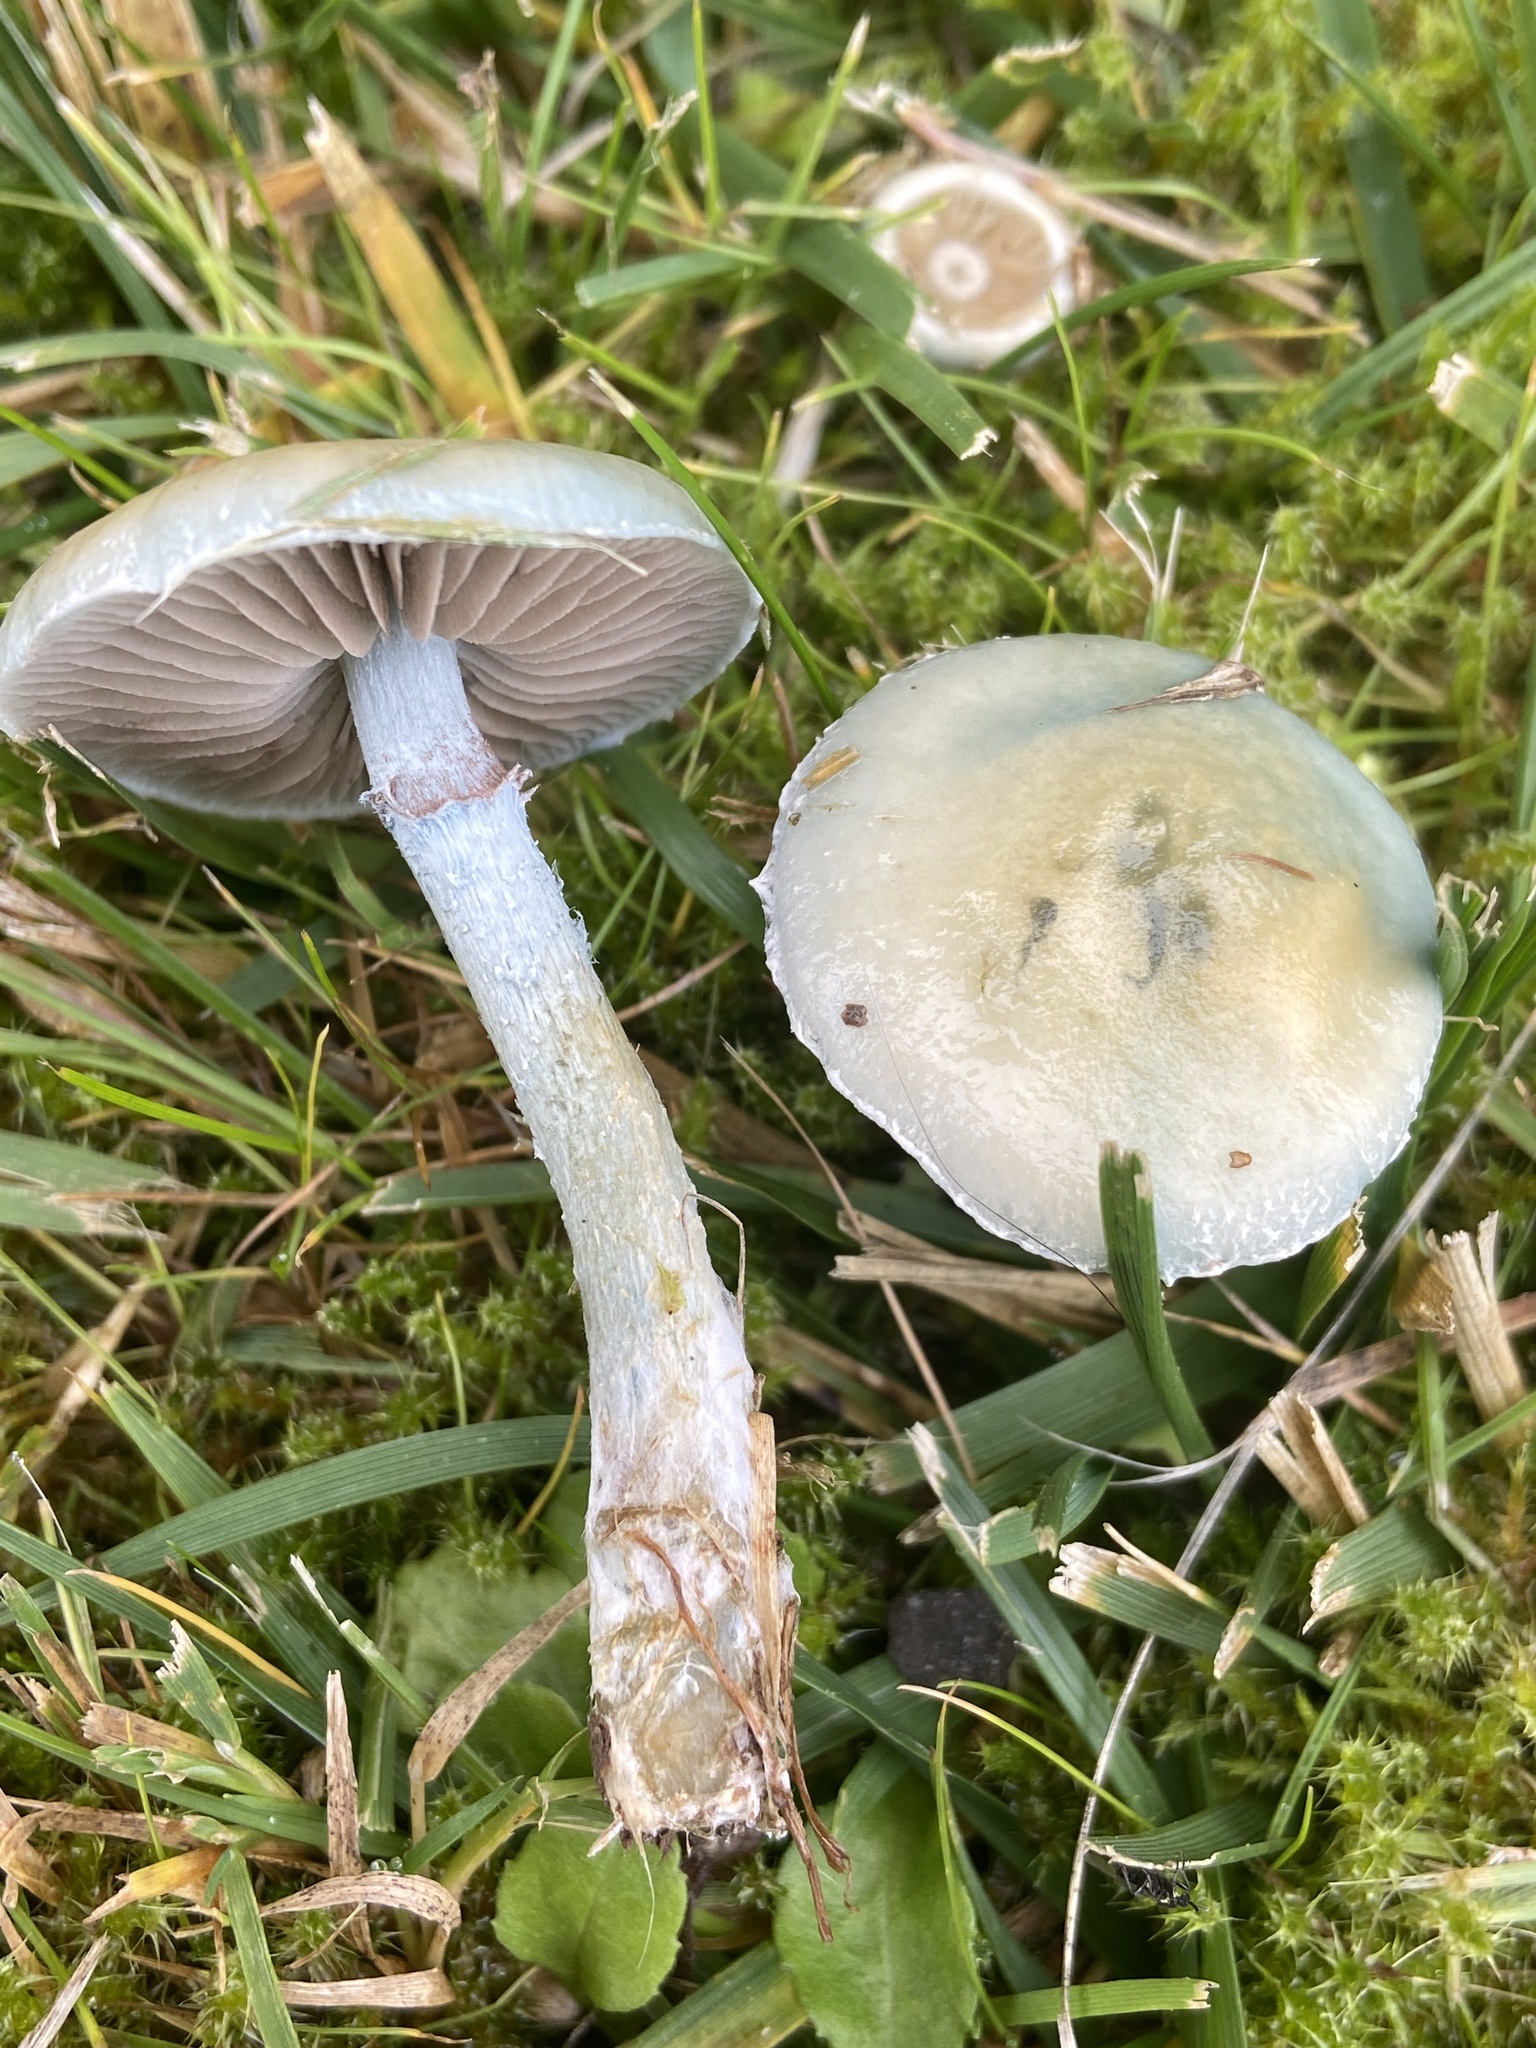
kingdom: Fungi
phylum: Basidiomycota
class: Agaricomycetes
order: Agaricales
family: Strophariaceae
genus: Stropharia
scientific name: Stropharia aeruginosa
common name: Verdigris roundhead
